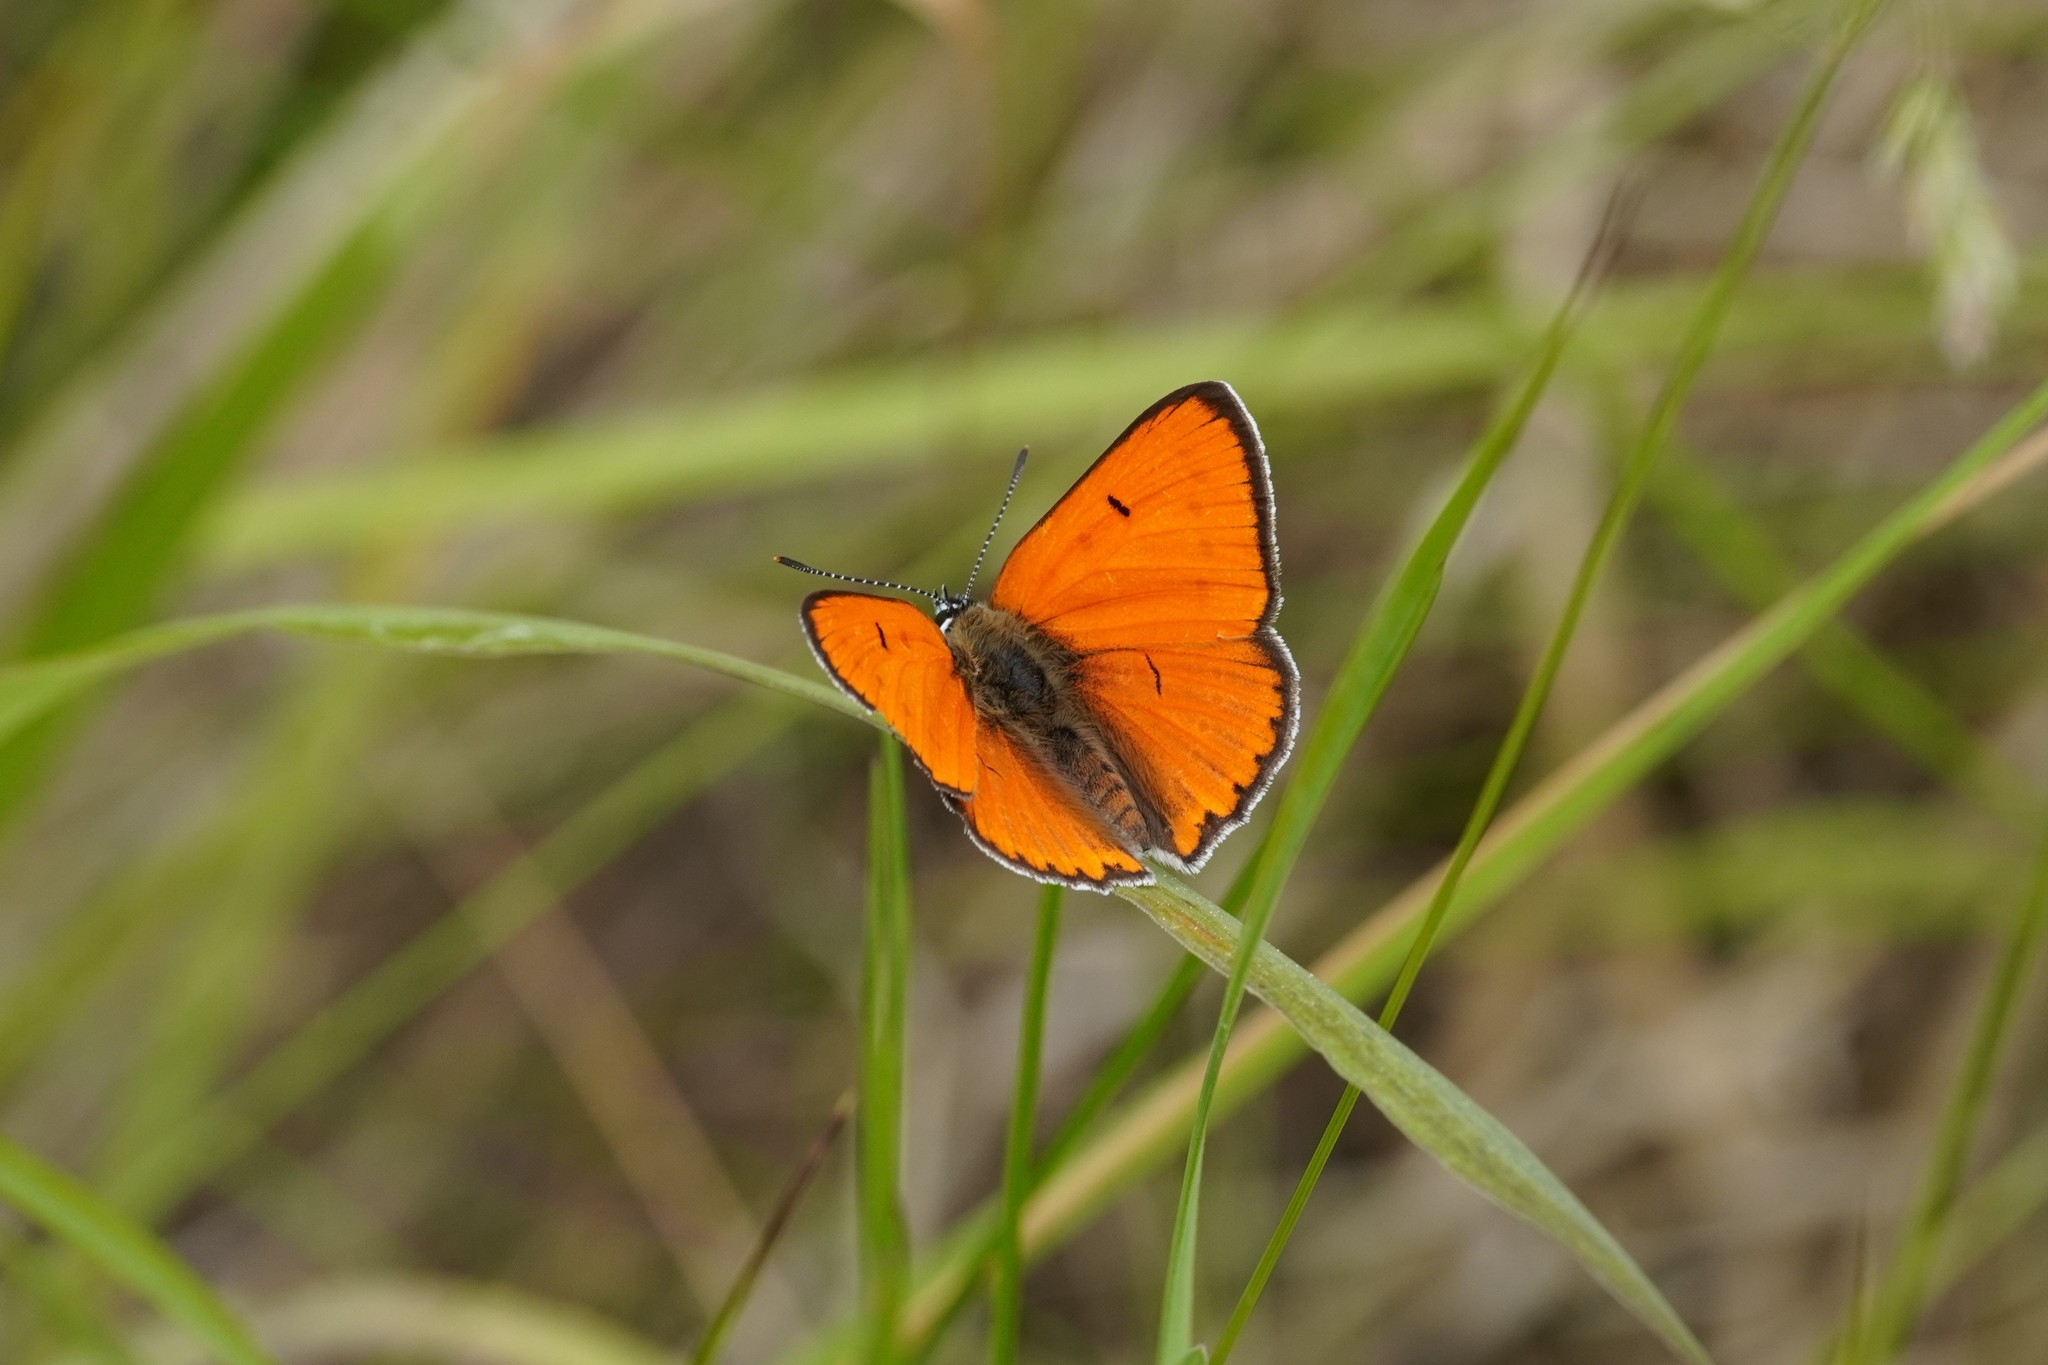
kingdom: Animalia
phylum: Arthropoda
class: Insecta
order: Lepidoptera
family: Lycaenidae
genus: Lycaena
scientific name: Lycaena dispar
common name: Large copper
